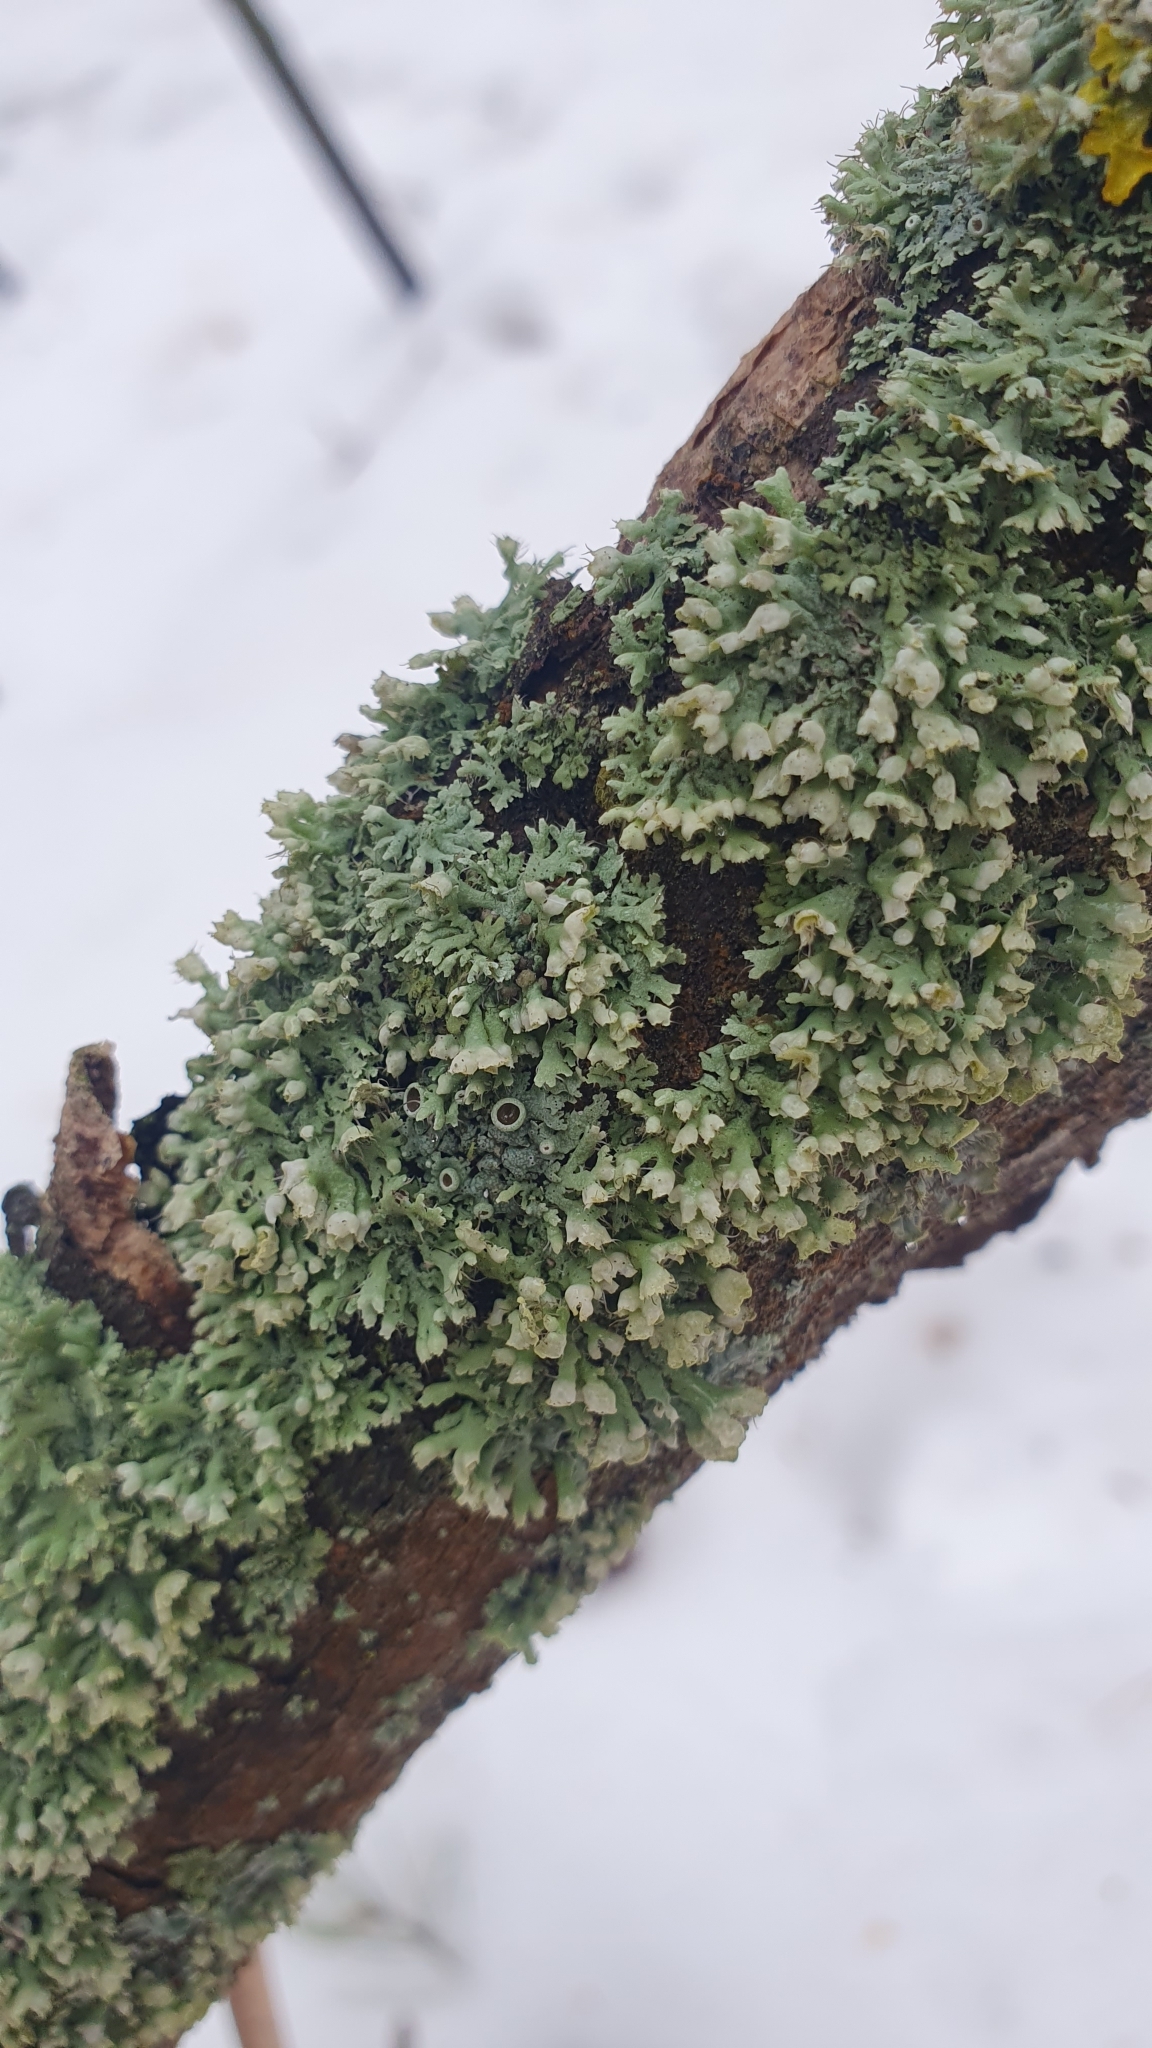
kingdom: Fungi
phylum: Ascomycota
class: Lecanoromycetes
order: Caliciales
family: Physciaceae
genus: Physcia
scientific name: Physcia adscendens
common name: Hooded rosette lichen
